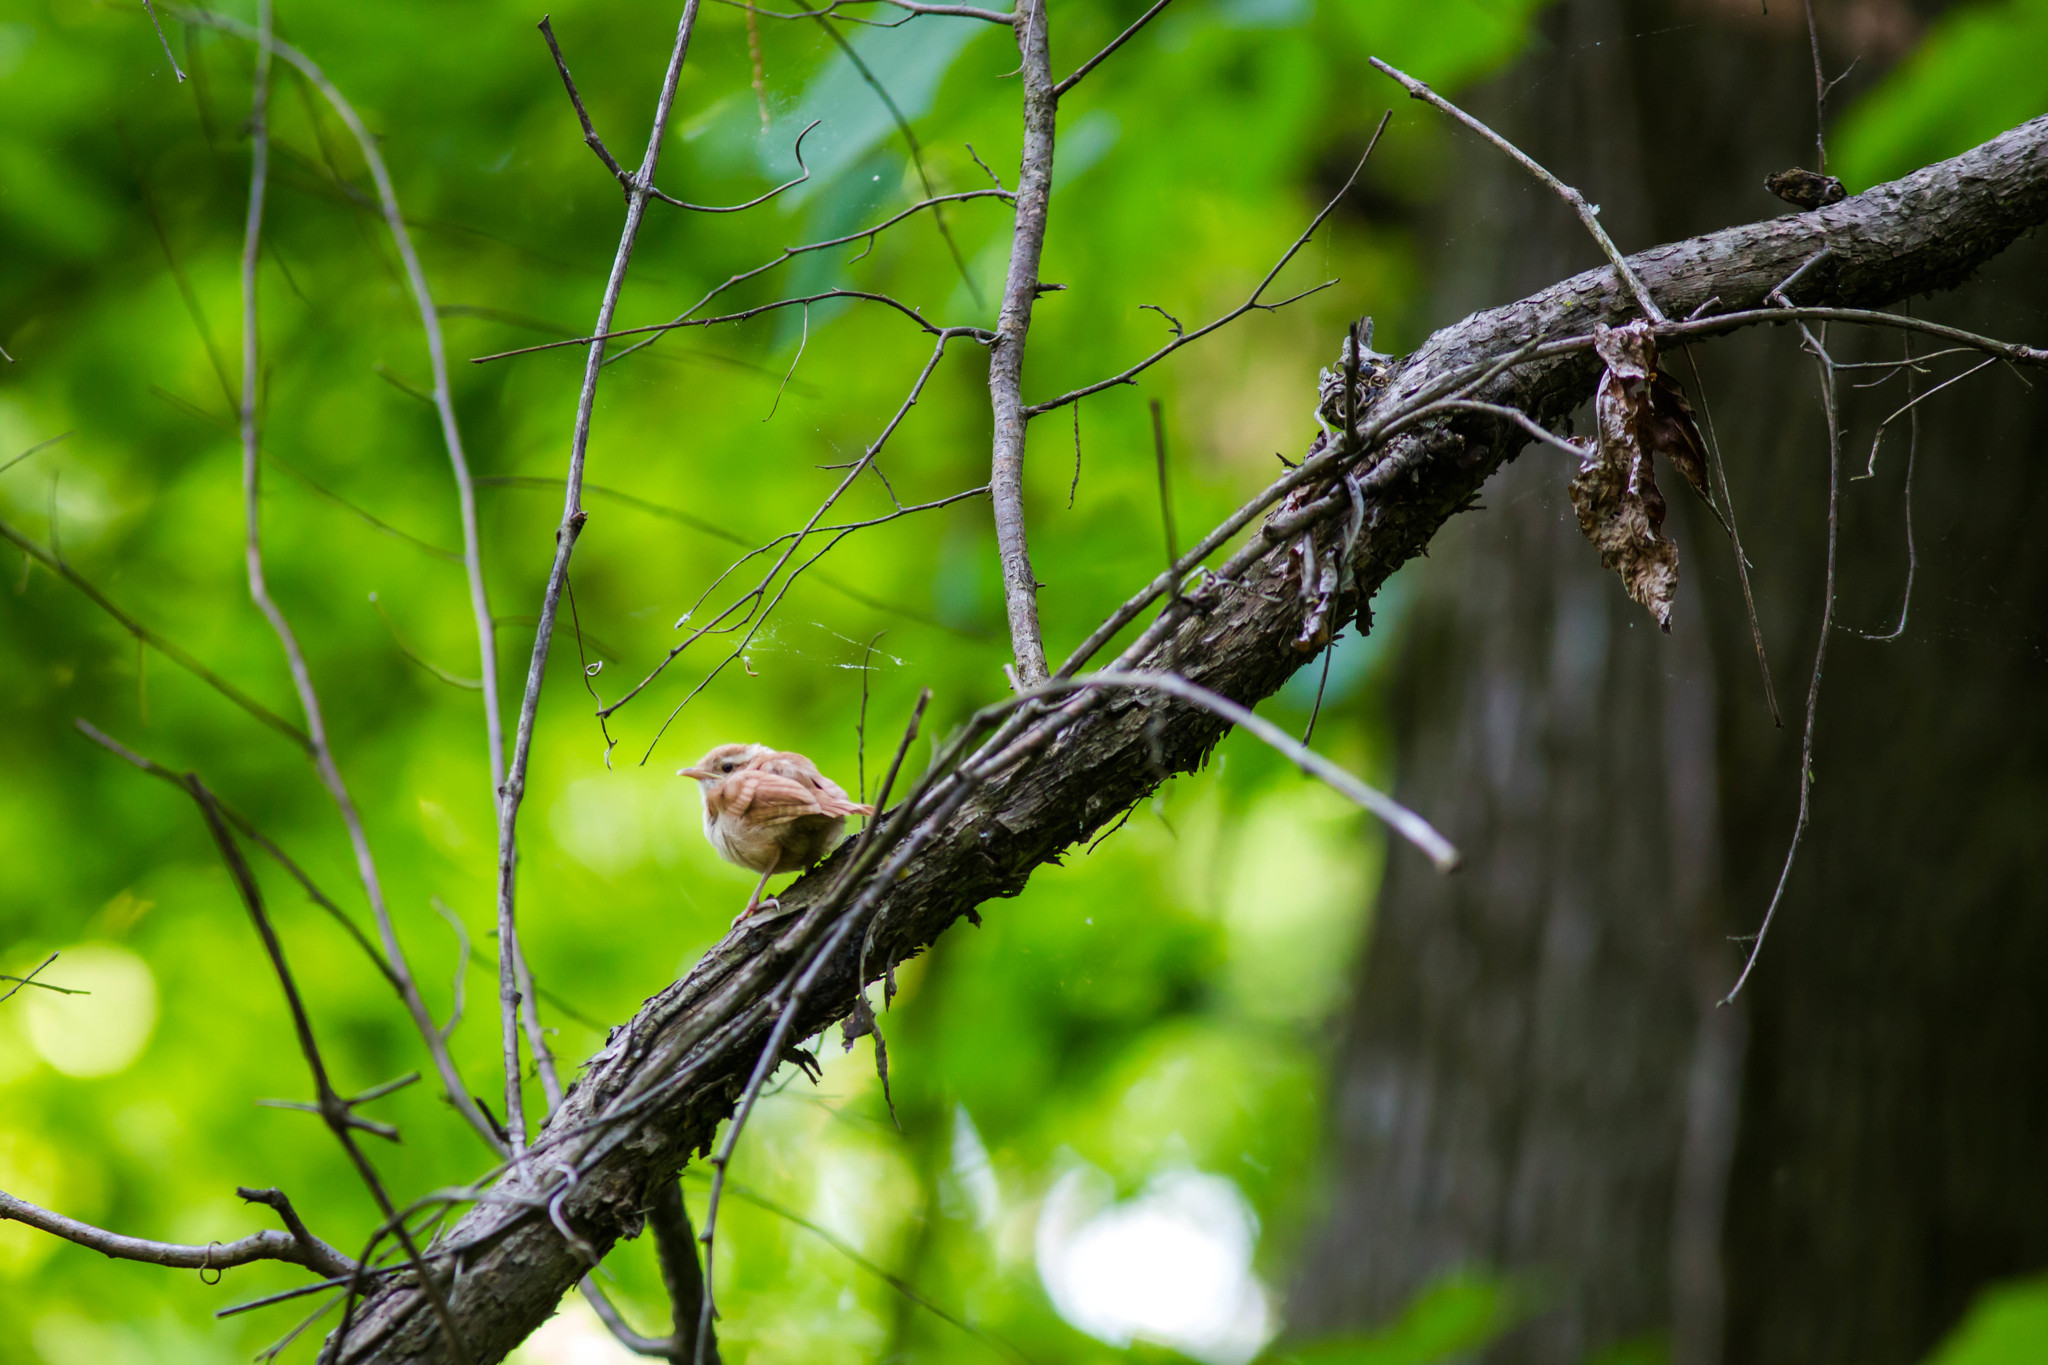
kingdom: Animalia
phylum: Chordata
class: Aves
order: Passeriformes
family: Troglodytidae
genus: Thryothorus
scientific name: Thryothorus ludovicianus
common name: Carolina wren
